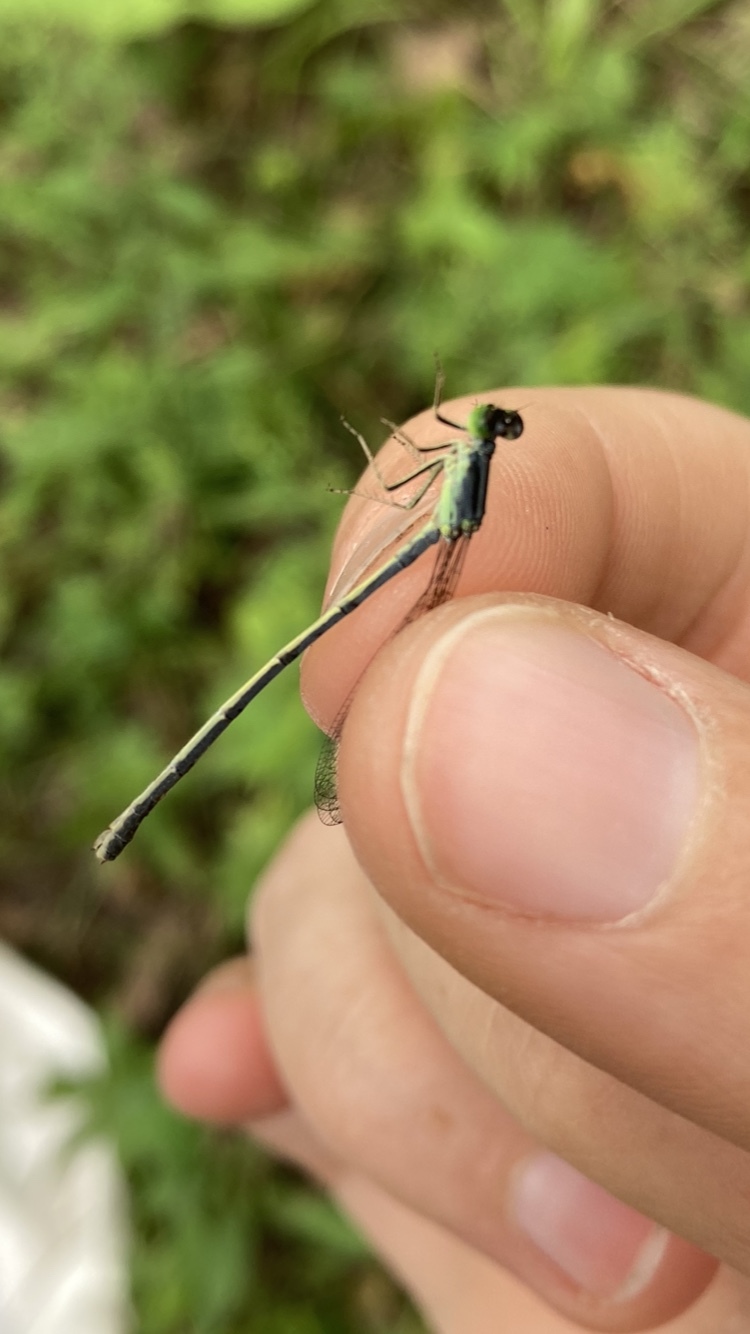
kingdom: Animalia
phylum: Arthropoda
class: Insecta
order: Odonata
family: Coenagrionidae
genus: Ischnura
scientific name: Ischnura verticalis
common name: Eastern forktail
